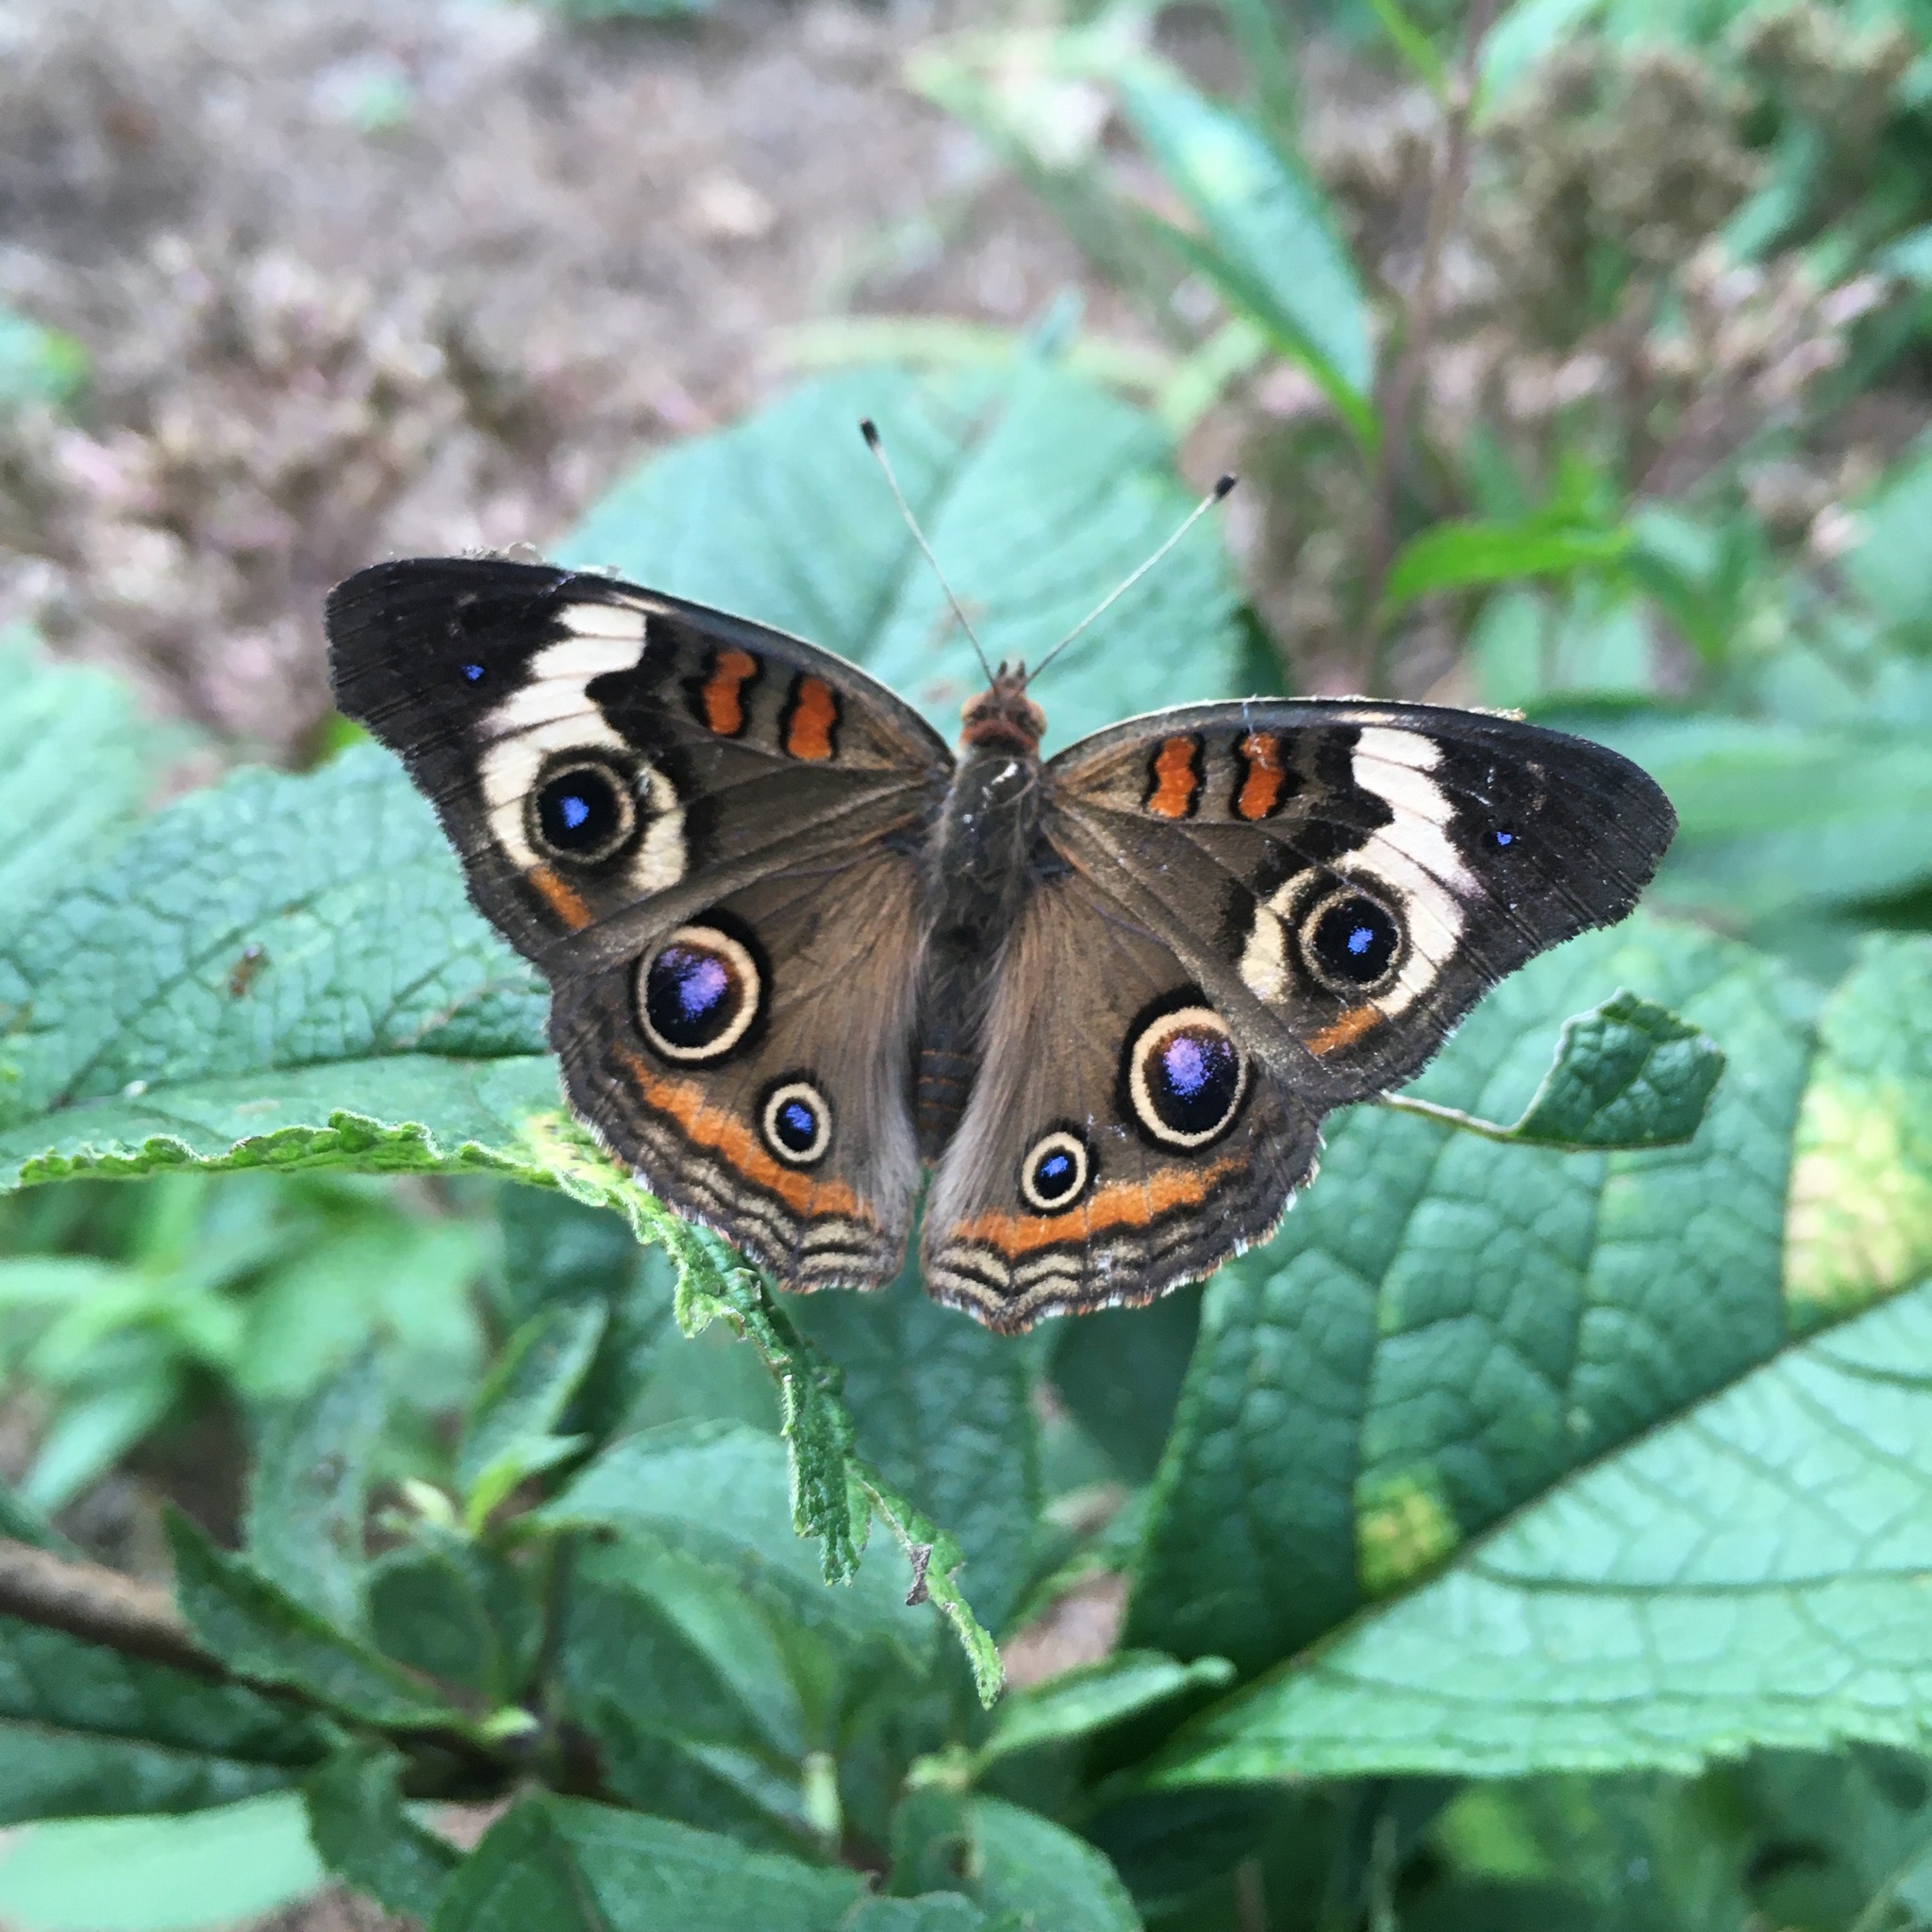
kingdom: Animalia
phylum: Arthropoda
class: Insecta
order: Lepidoptera
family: Nymphalidae
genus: Junonia
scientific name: Junonia coenia
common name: Common buckeye
